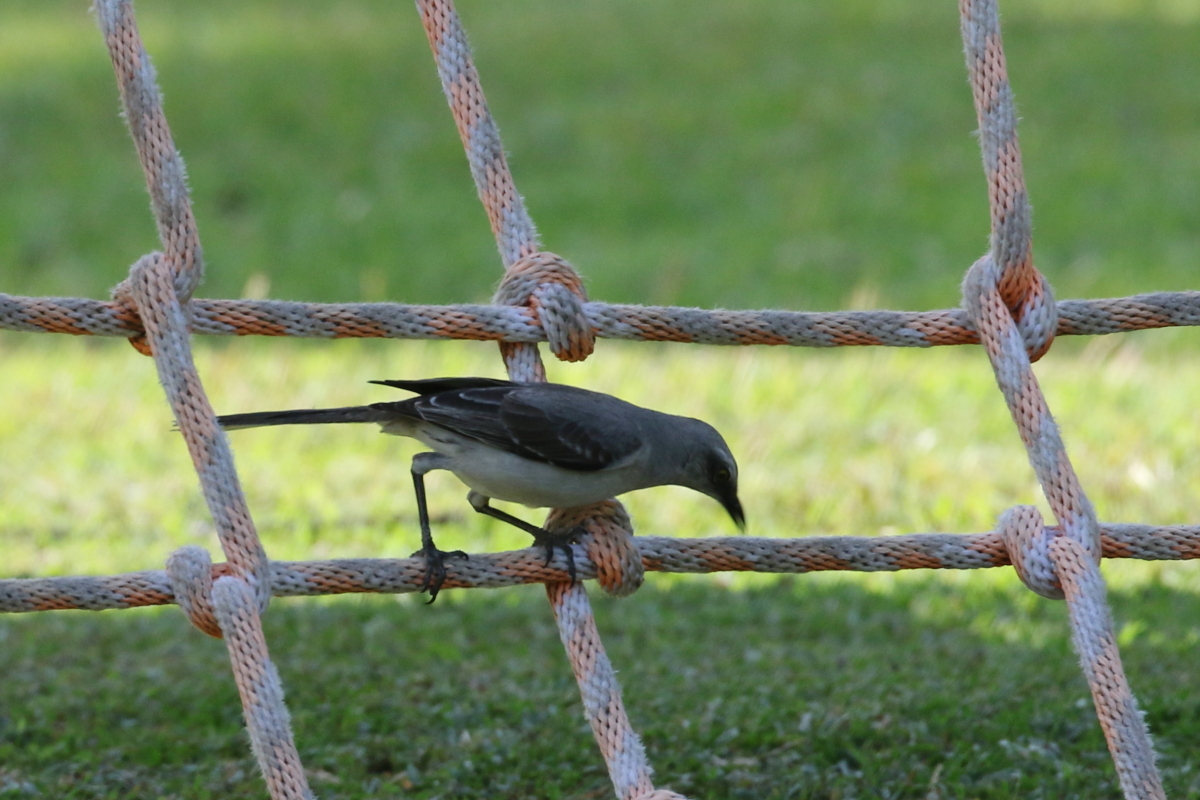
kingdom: Animalia
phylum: Chordata
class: Aves
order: Passeriformes
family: Mimidae
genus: Mimus
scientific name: Mimus gilvus
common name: Tropical mockingbird
